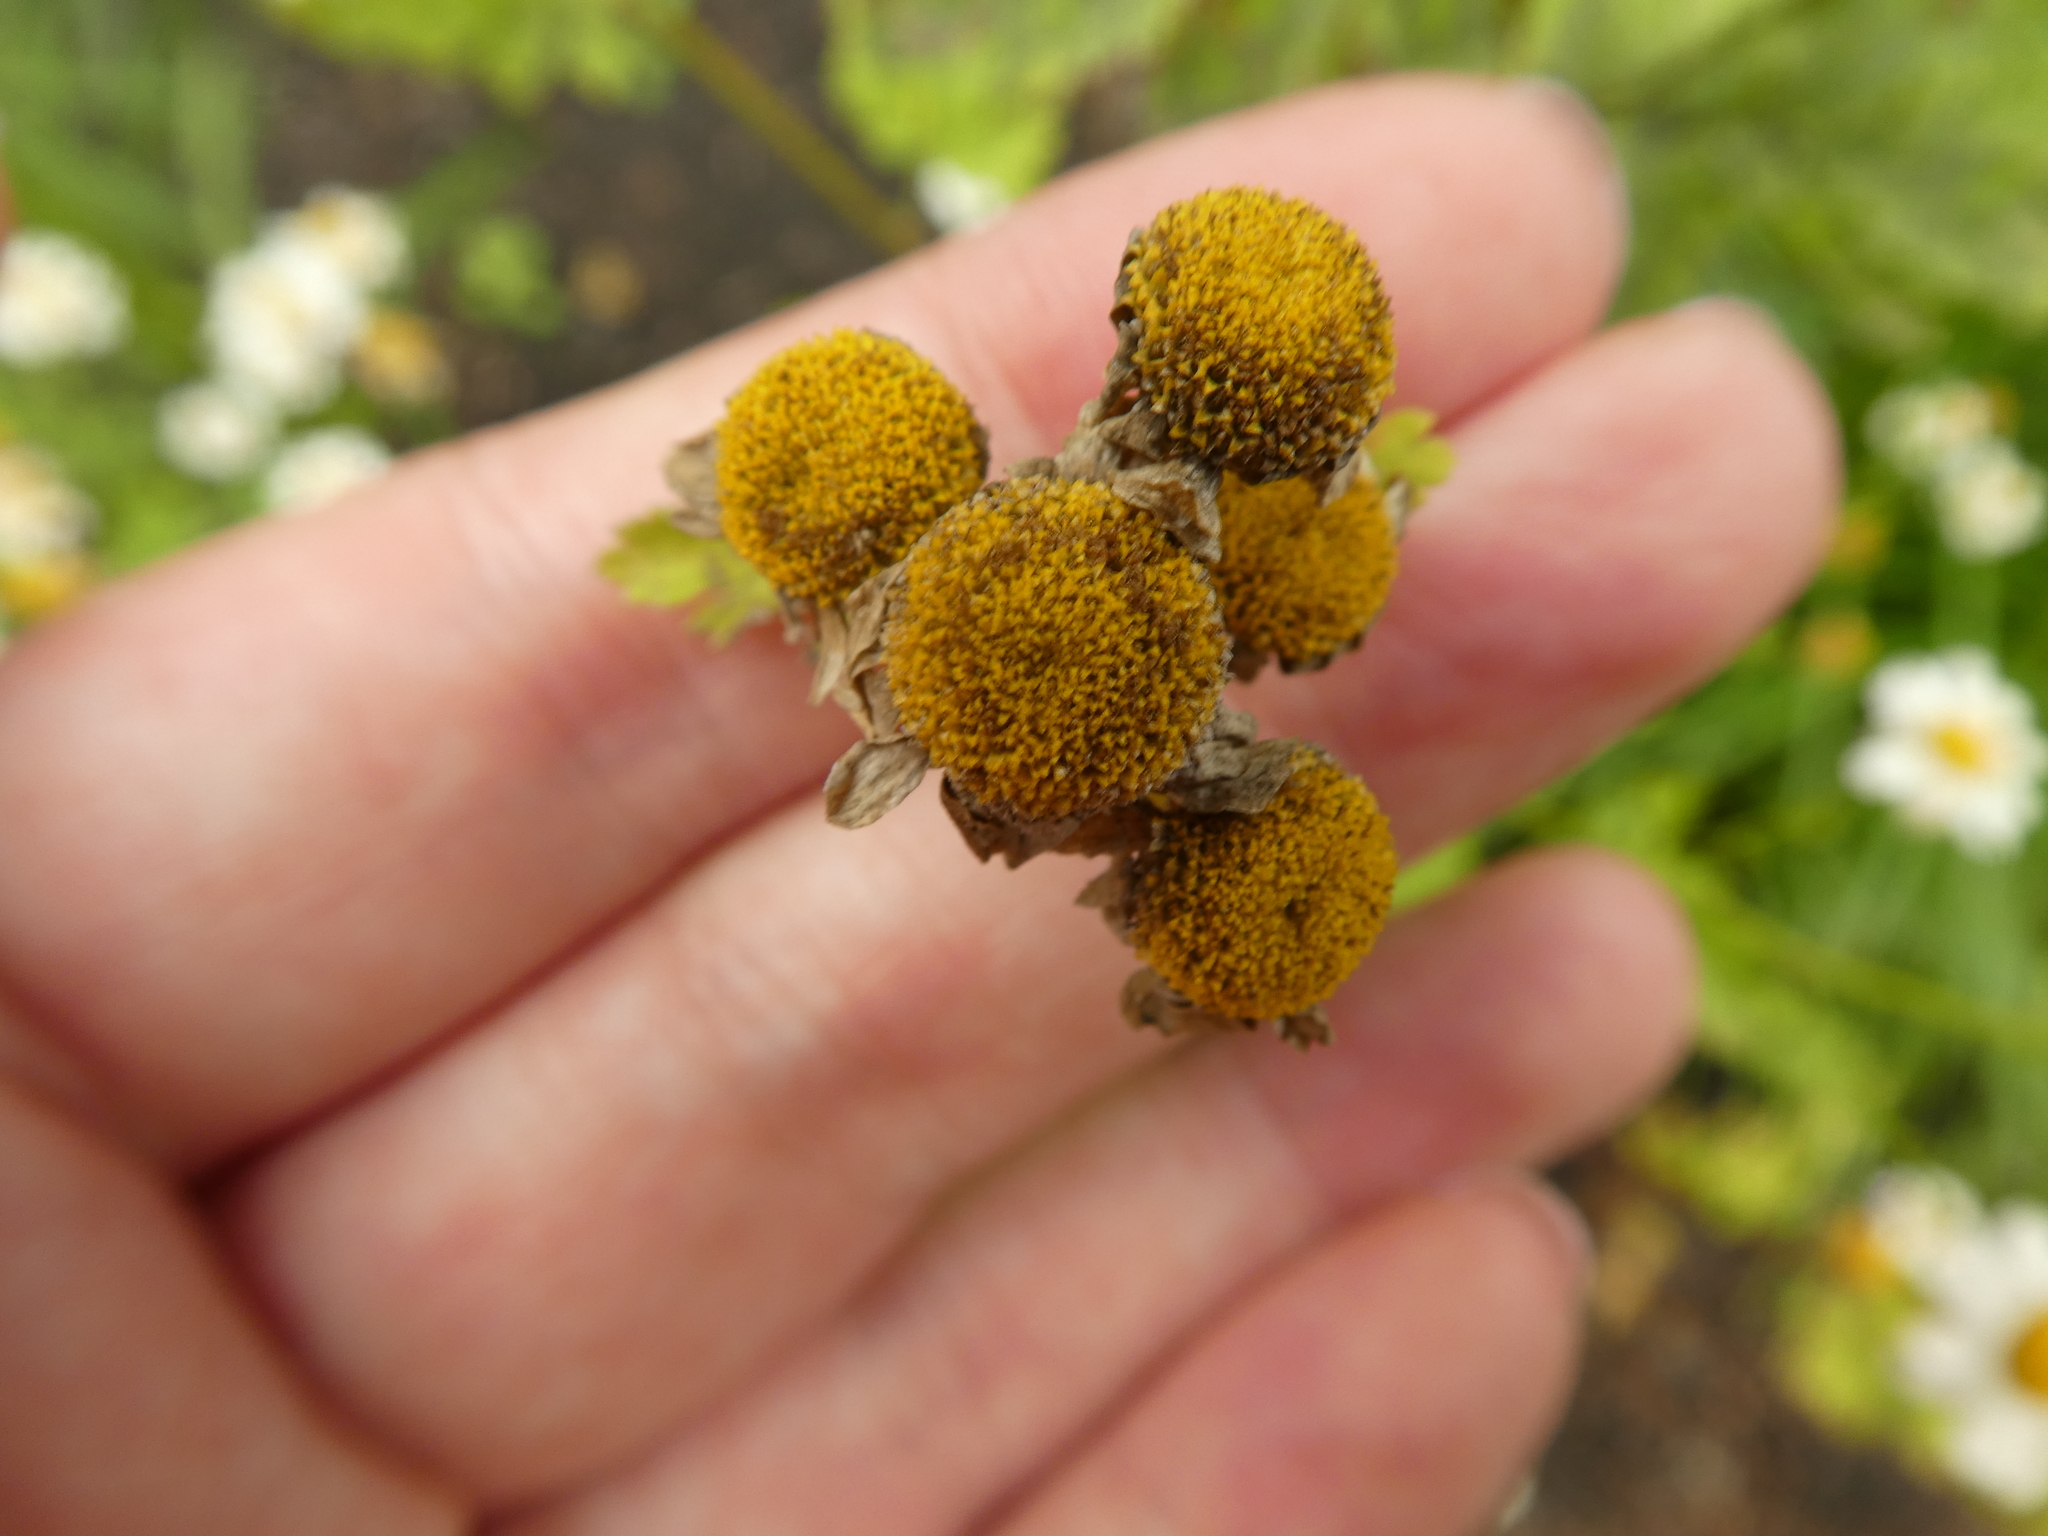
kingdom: Plantae
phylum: Tracheophyta
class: Magnoliopsida
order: Asterales
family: Asteraceae
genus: Tanacetum
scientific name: Tanacetum parthenium
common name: Feverfew
